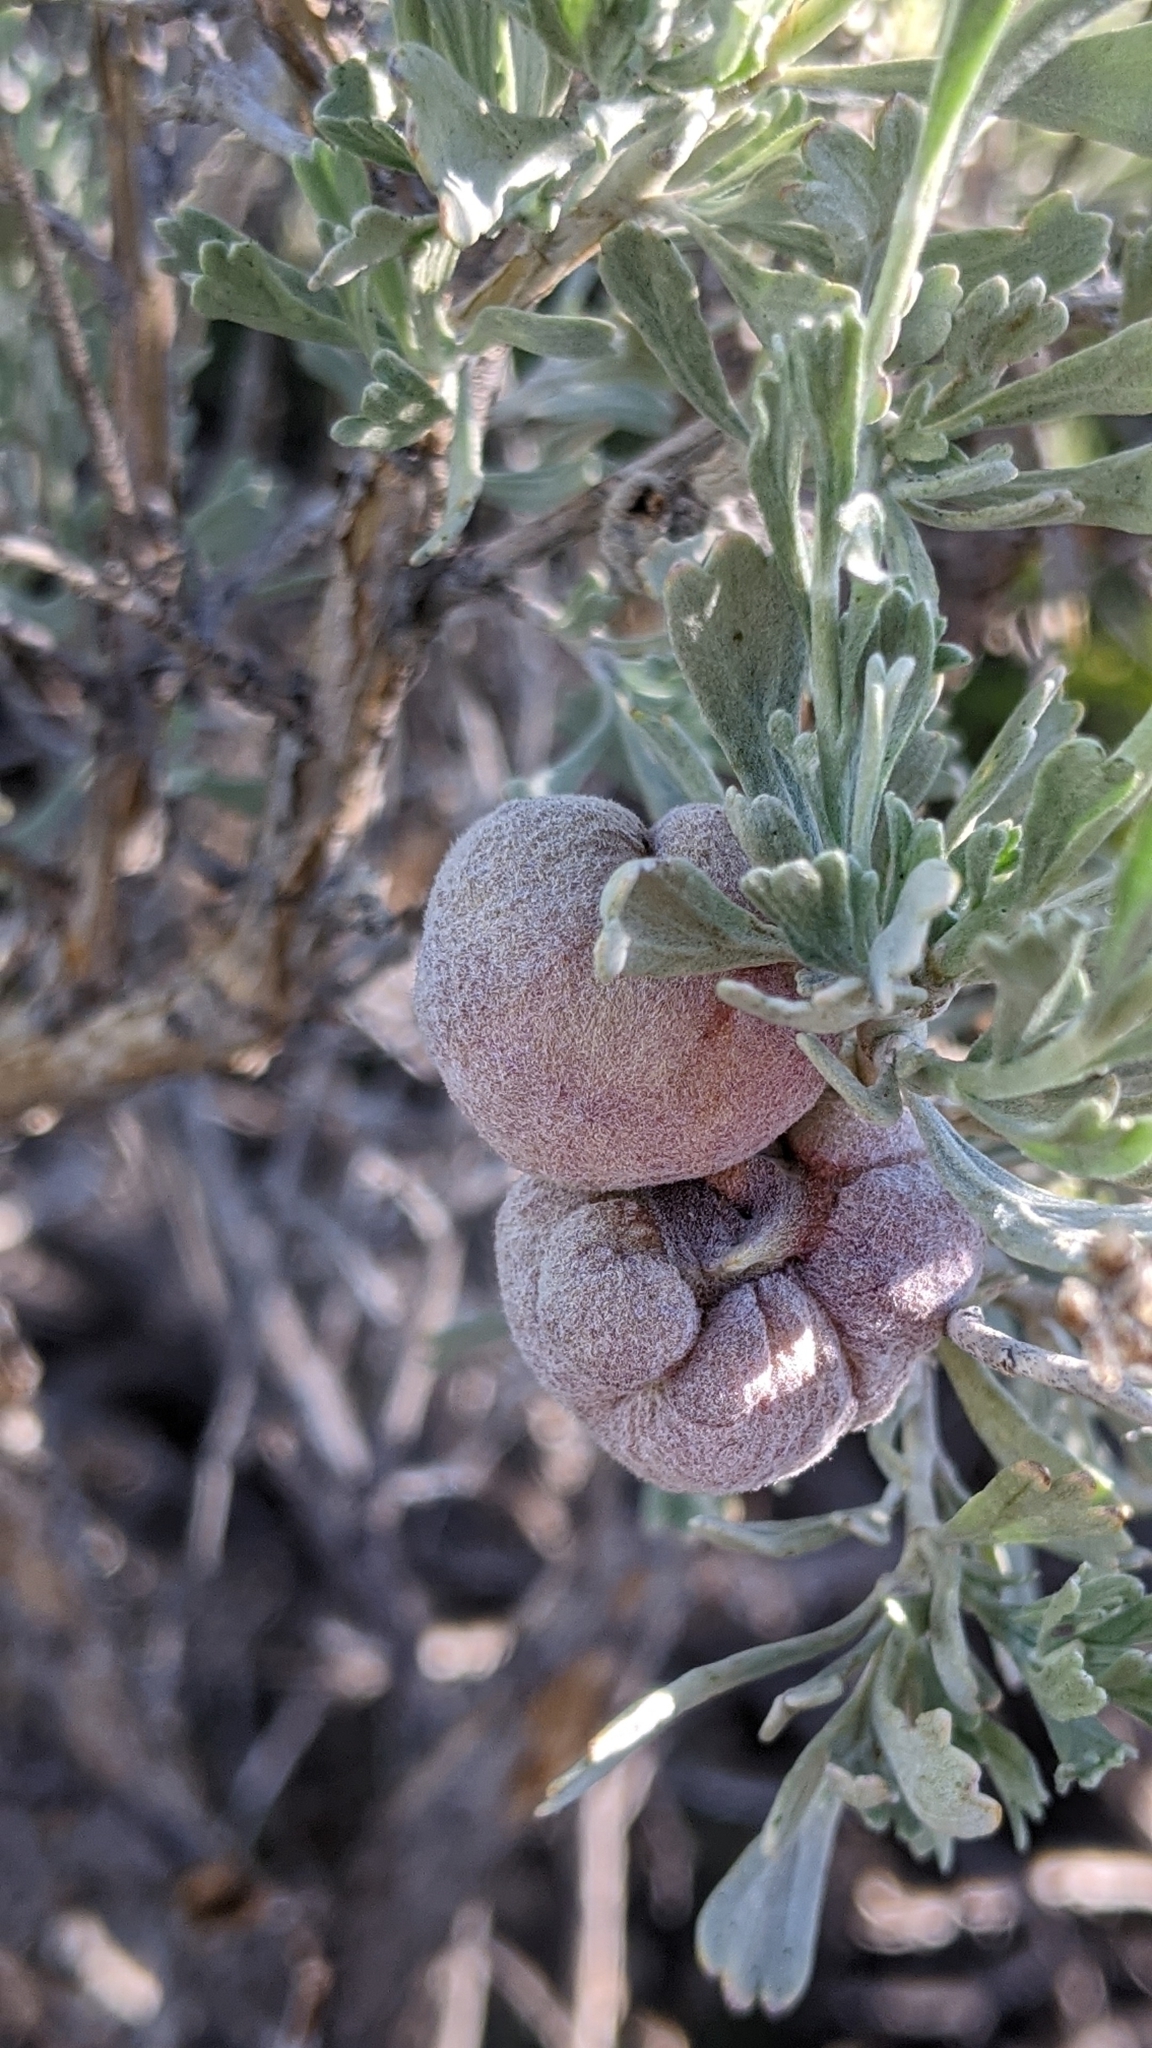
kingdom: Animalia
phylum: Arthropoda
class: Insecta
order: Diptera
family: Cecidomyiidae
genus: Rhopalomyia
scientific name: Rhopalomyia pomum
